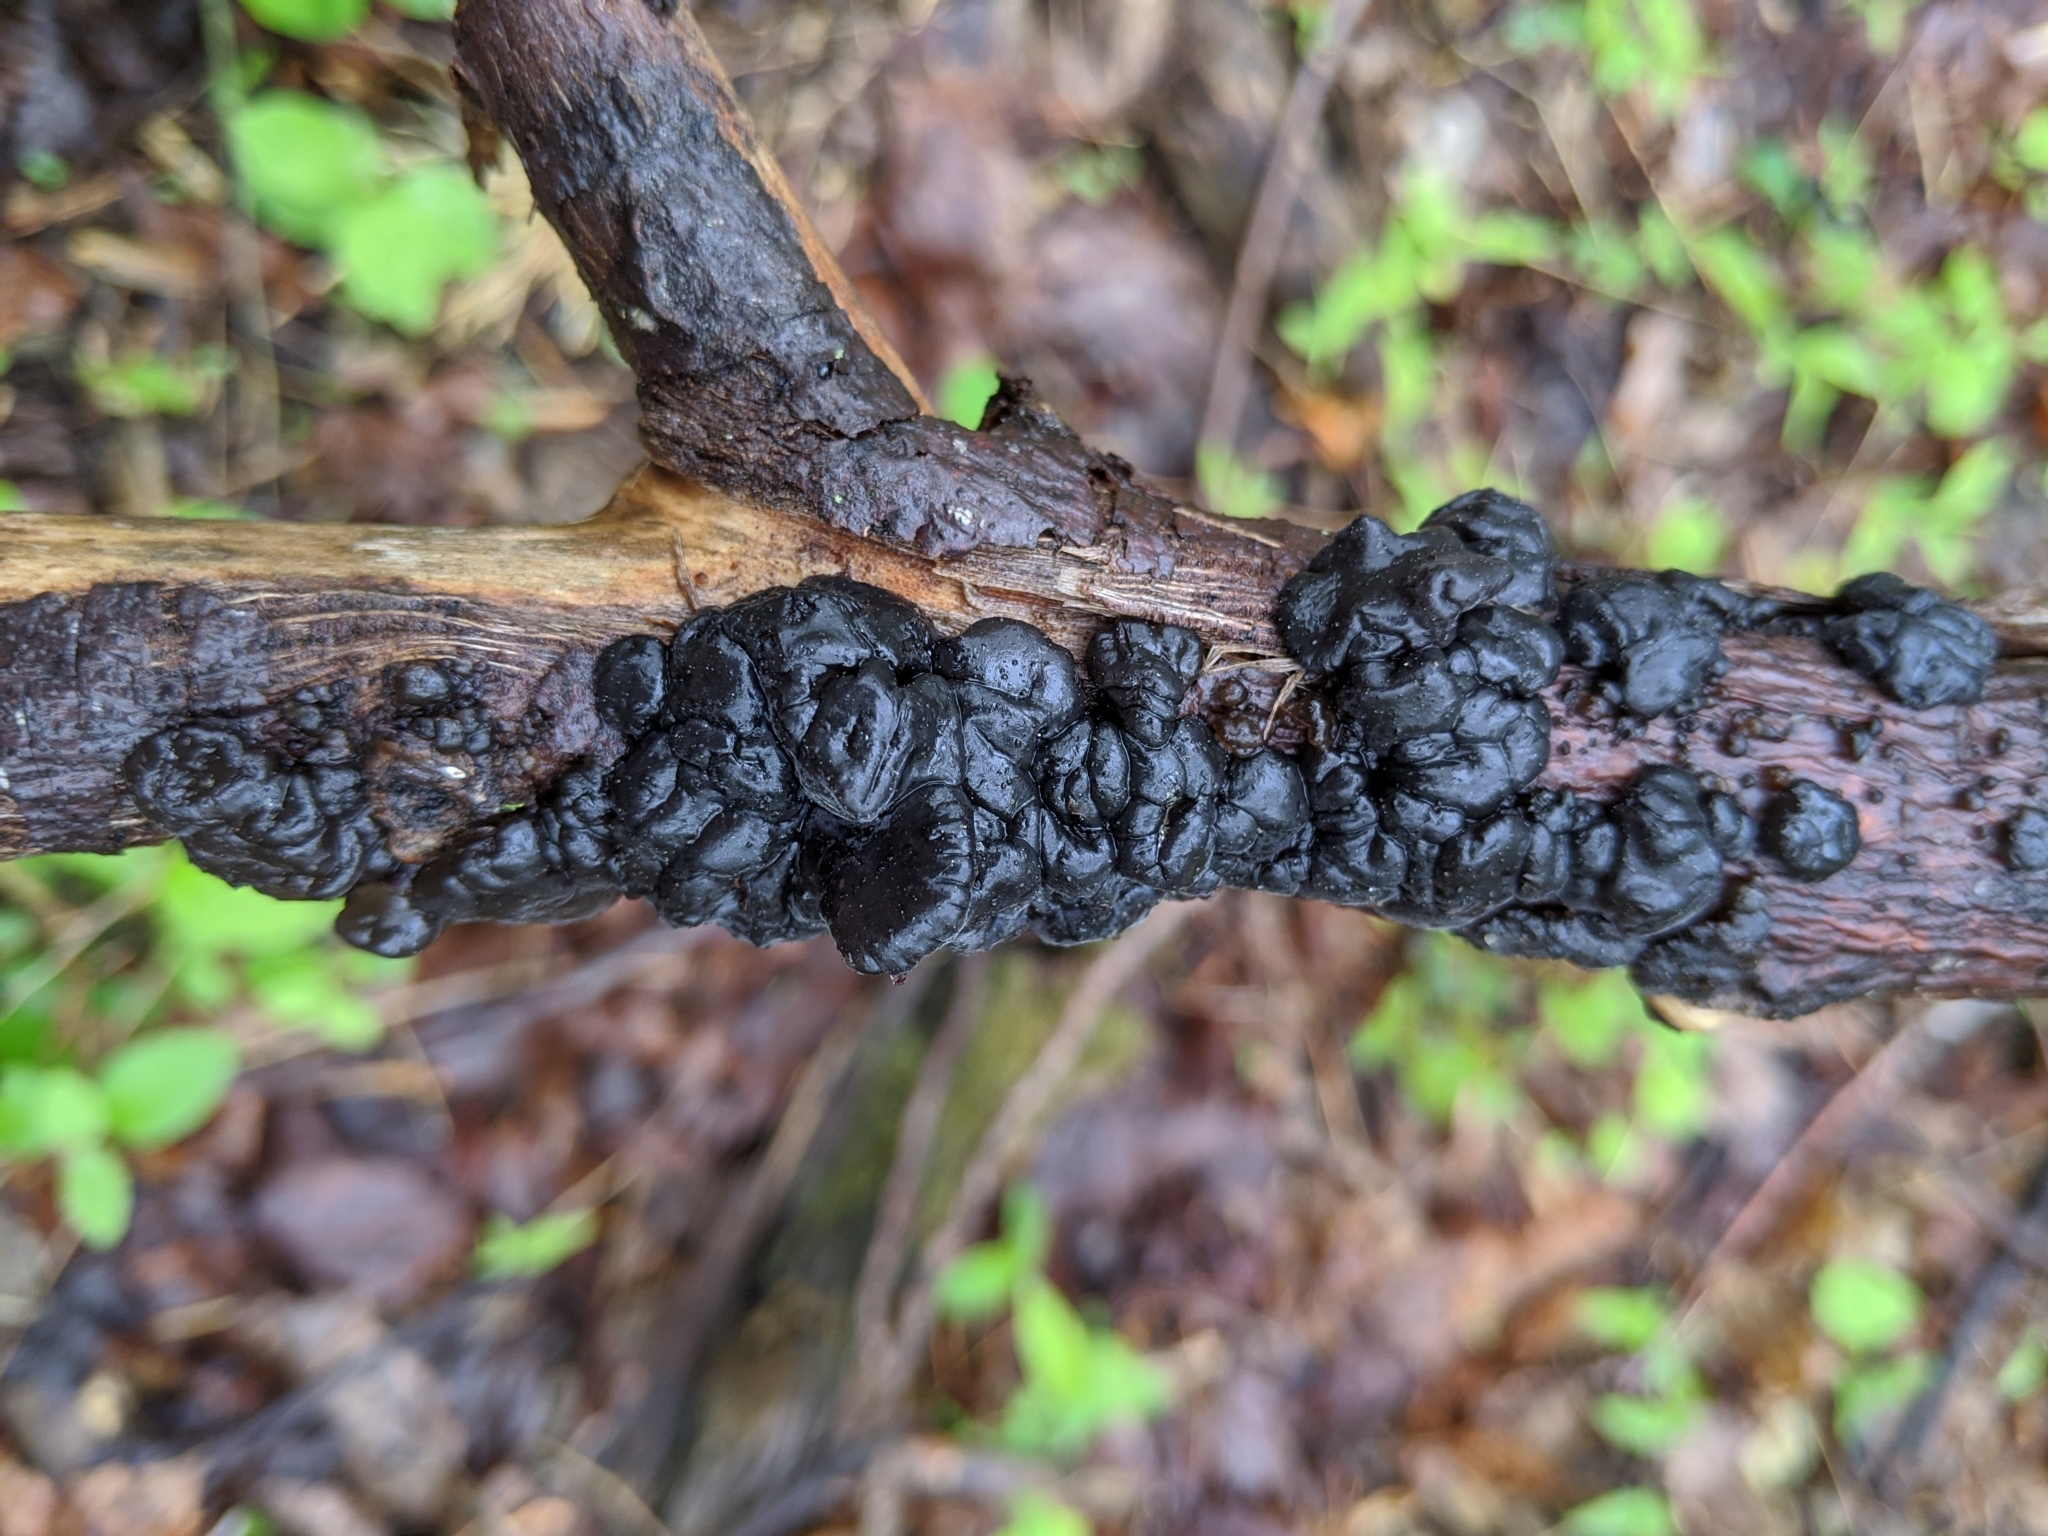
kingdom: Fungi
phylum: Basidiomycota
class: Agaricomycetes
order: Auriculariales
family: Auriculariaceae
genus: Exidia
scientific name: Exidia glandulosa
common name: Witches' butter
